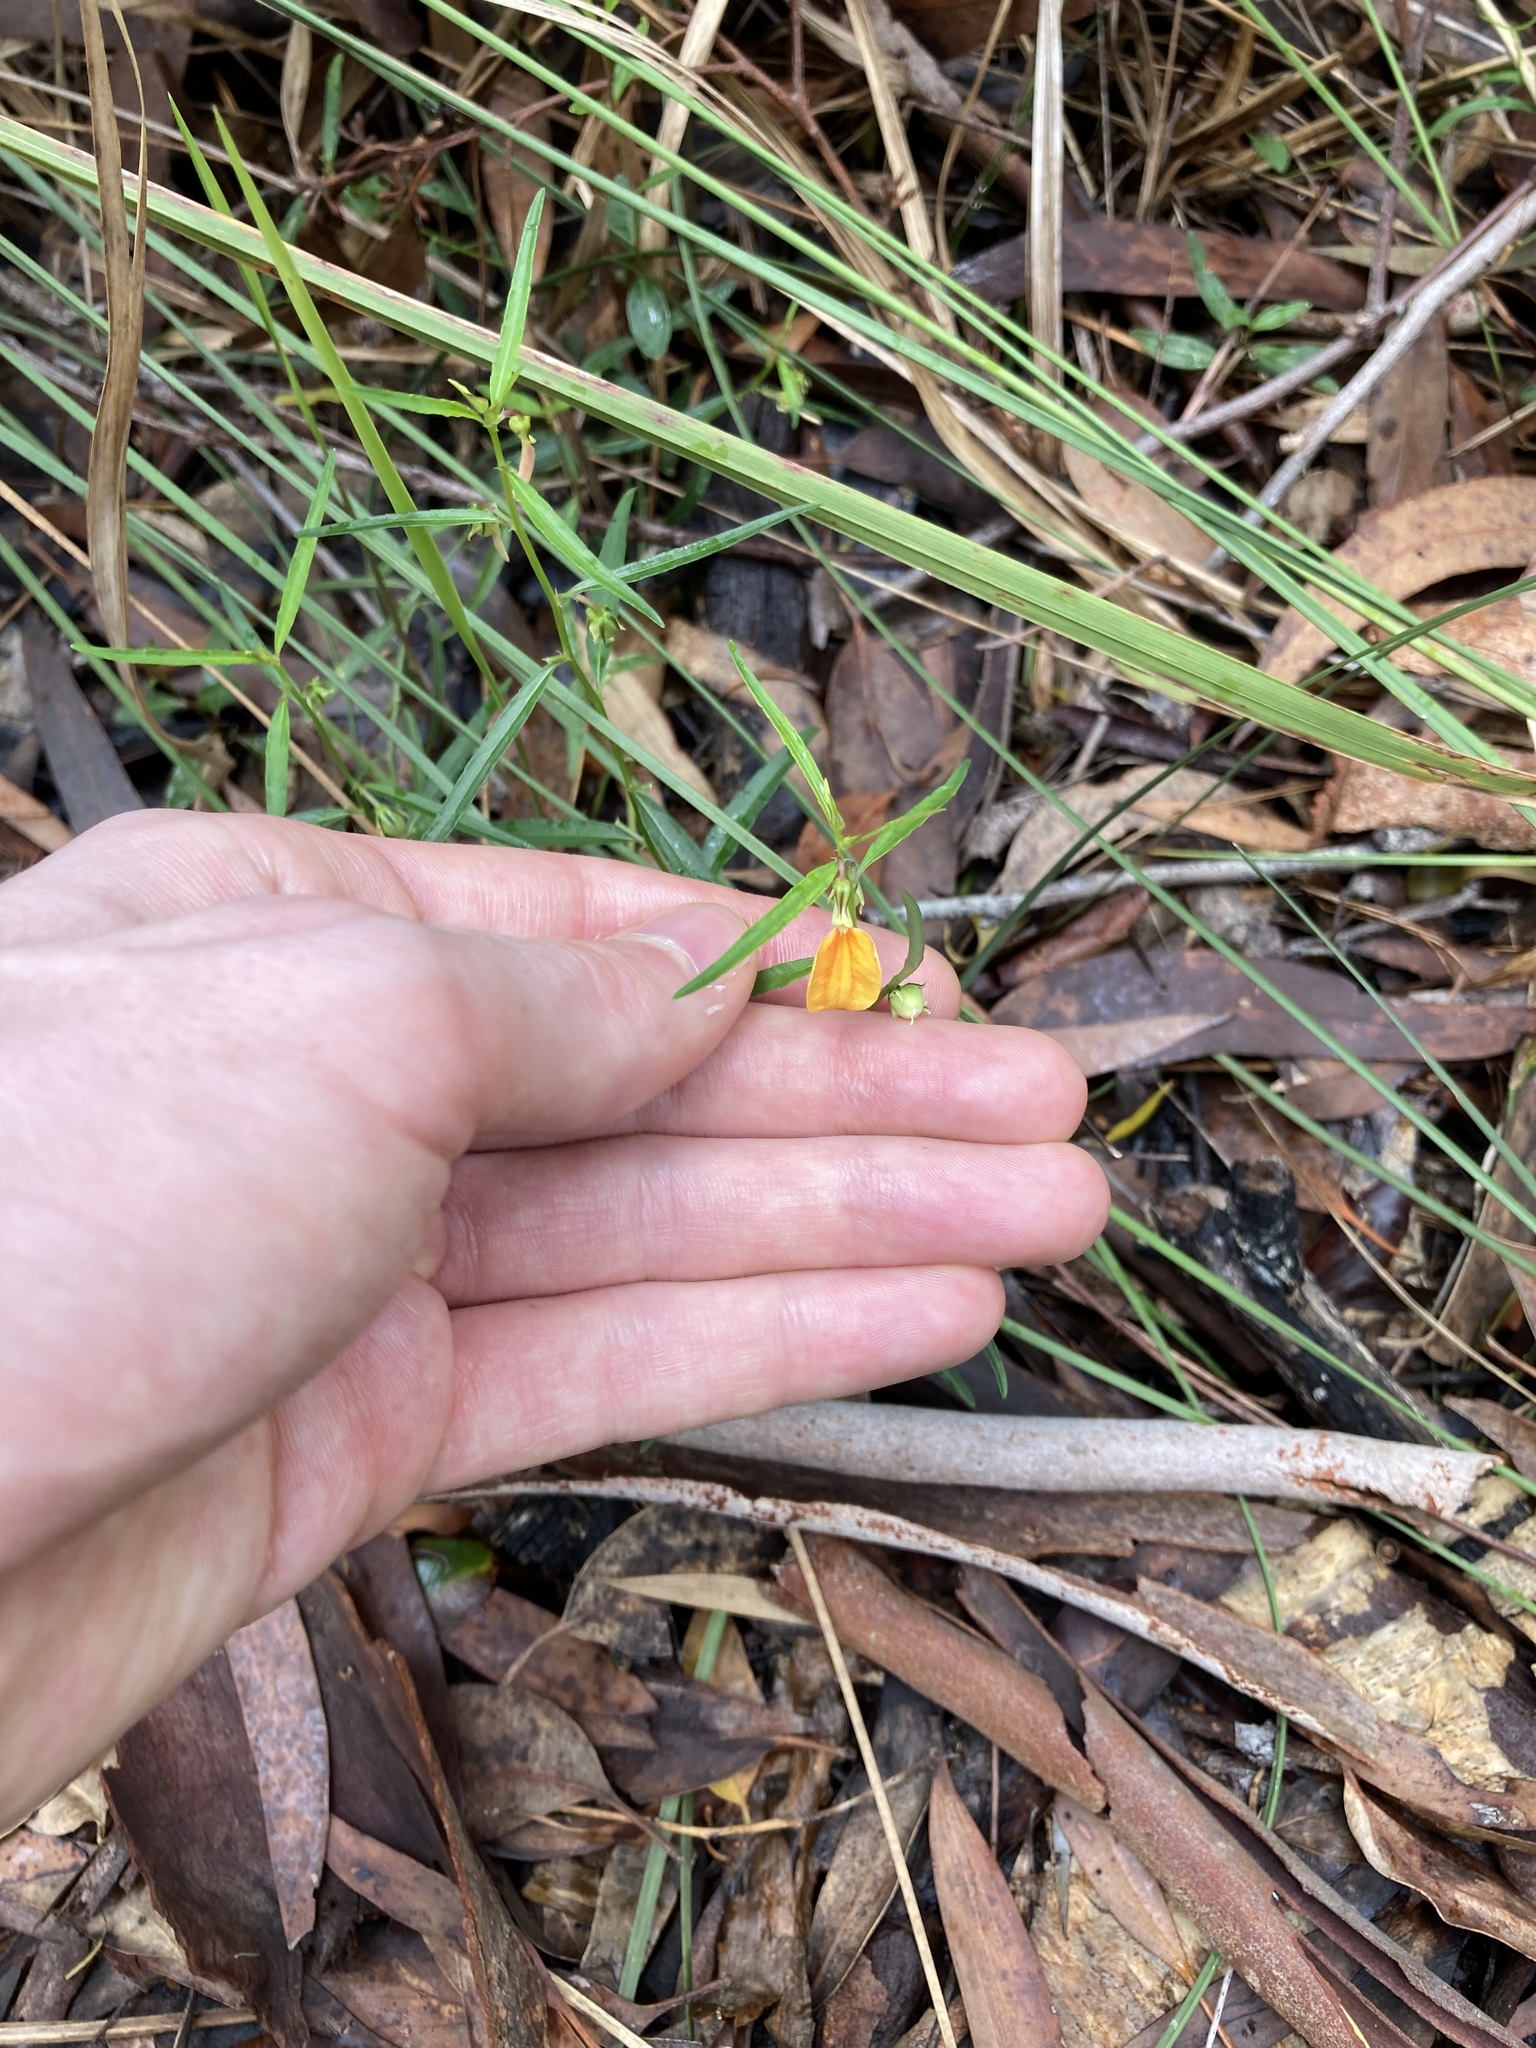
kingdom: Plantae
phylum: Tracheophyta
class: Magnoliopsida
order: Malpighiales
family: Violaceae
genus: Pigea
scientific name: Pigea stellarioides
